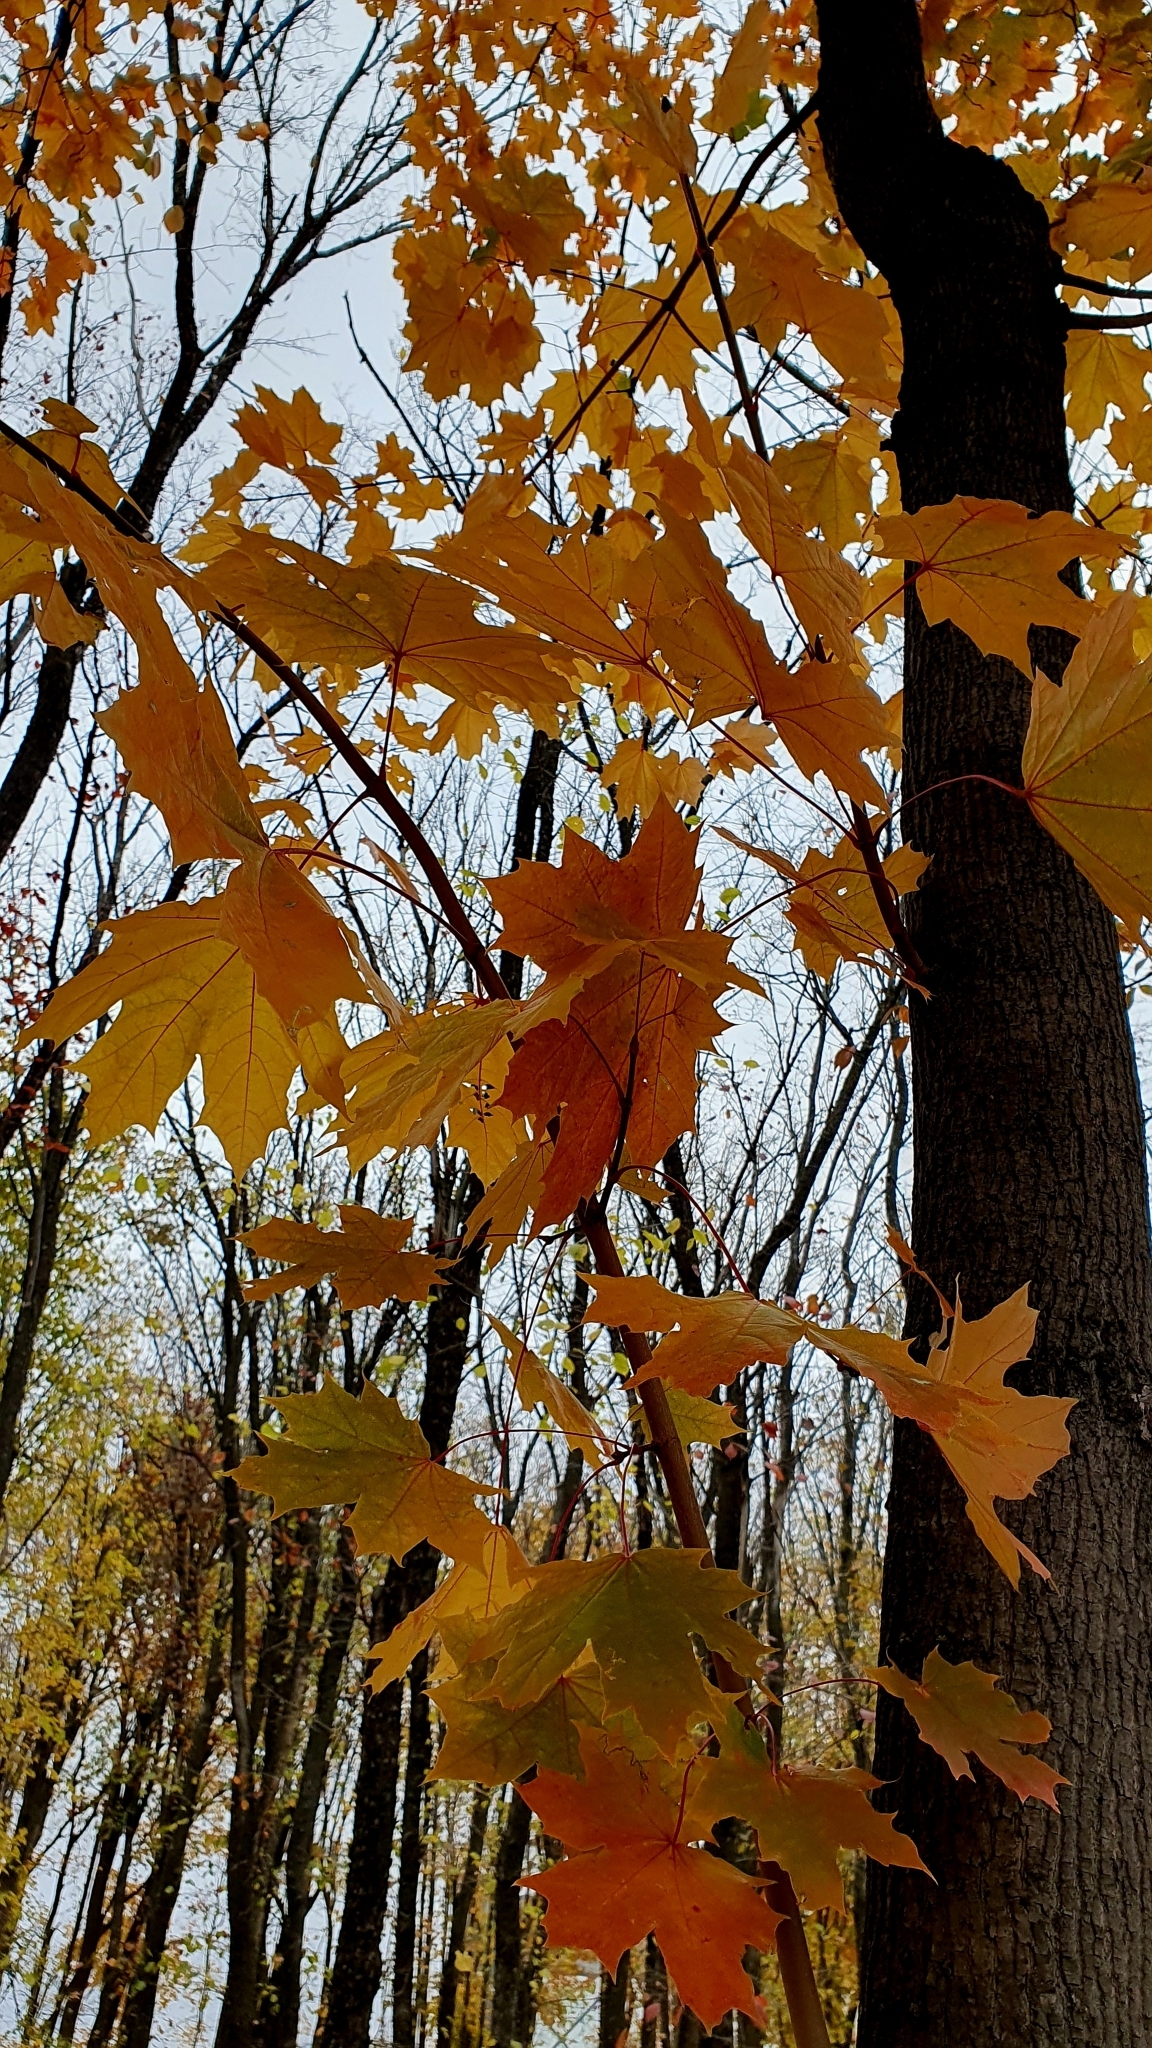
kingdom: Plantae
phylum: Tracheophyta
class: Magnoliopsida
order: Sapindales
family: Sapindaceae
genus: Acer
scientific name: Acer platanoides
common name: Norway maple
